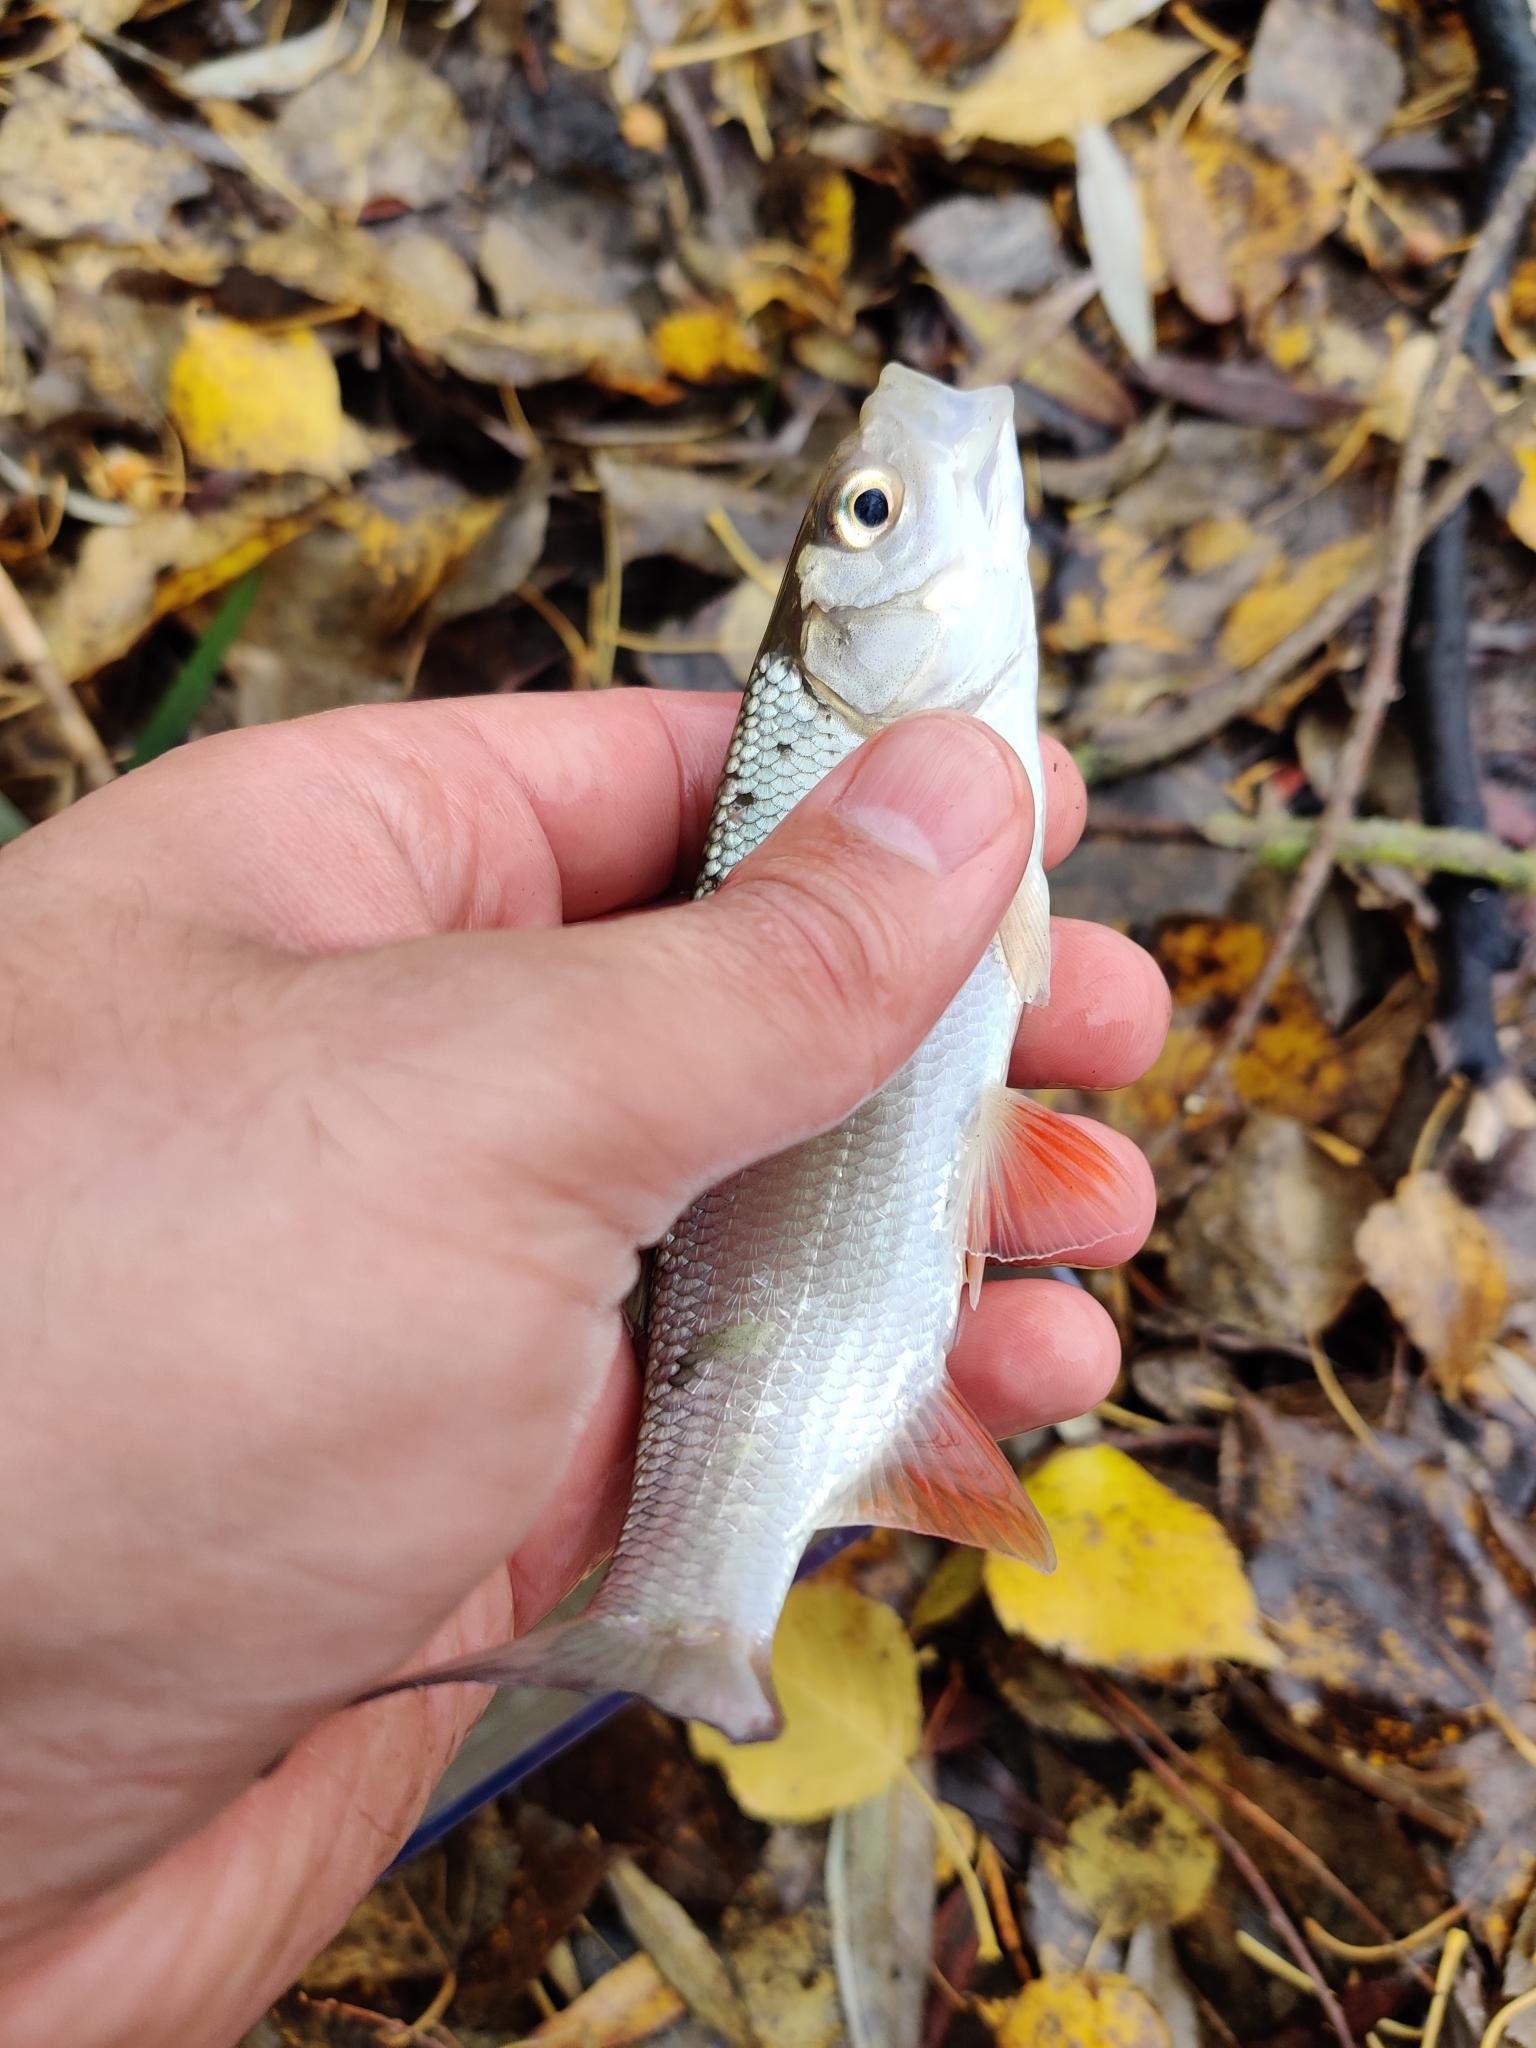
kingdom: Animalia
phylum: Chordata
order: Cypriniformes
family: Cyprinidae
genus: Squalius
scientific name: Squalius cephalus
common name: Chub
